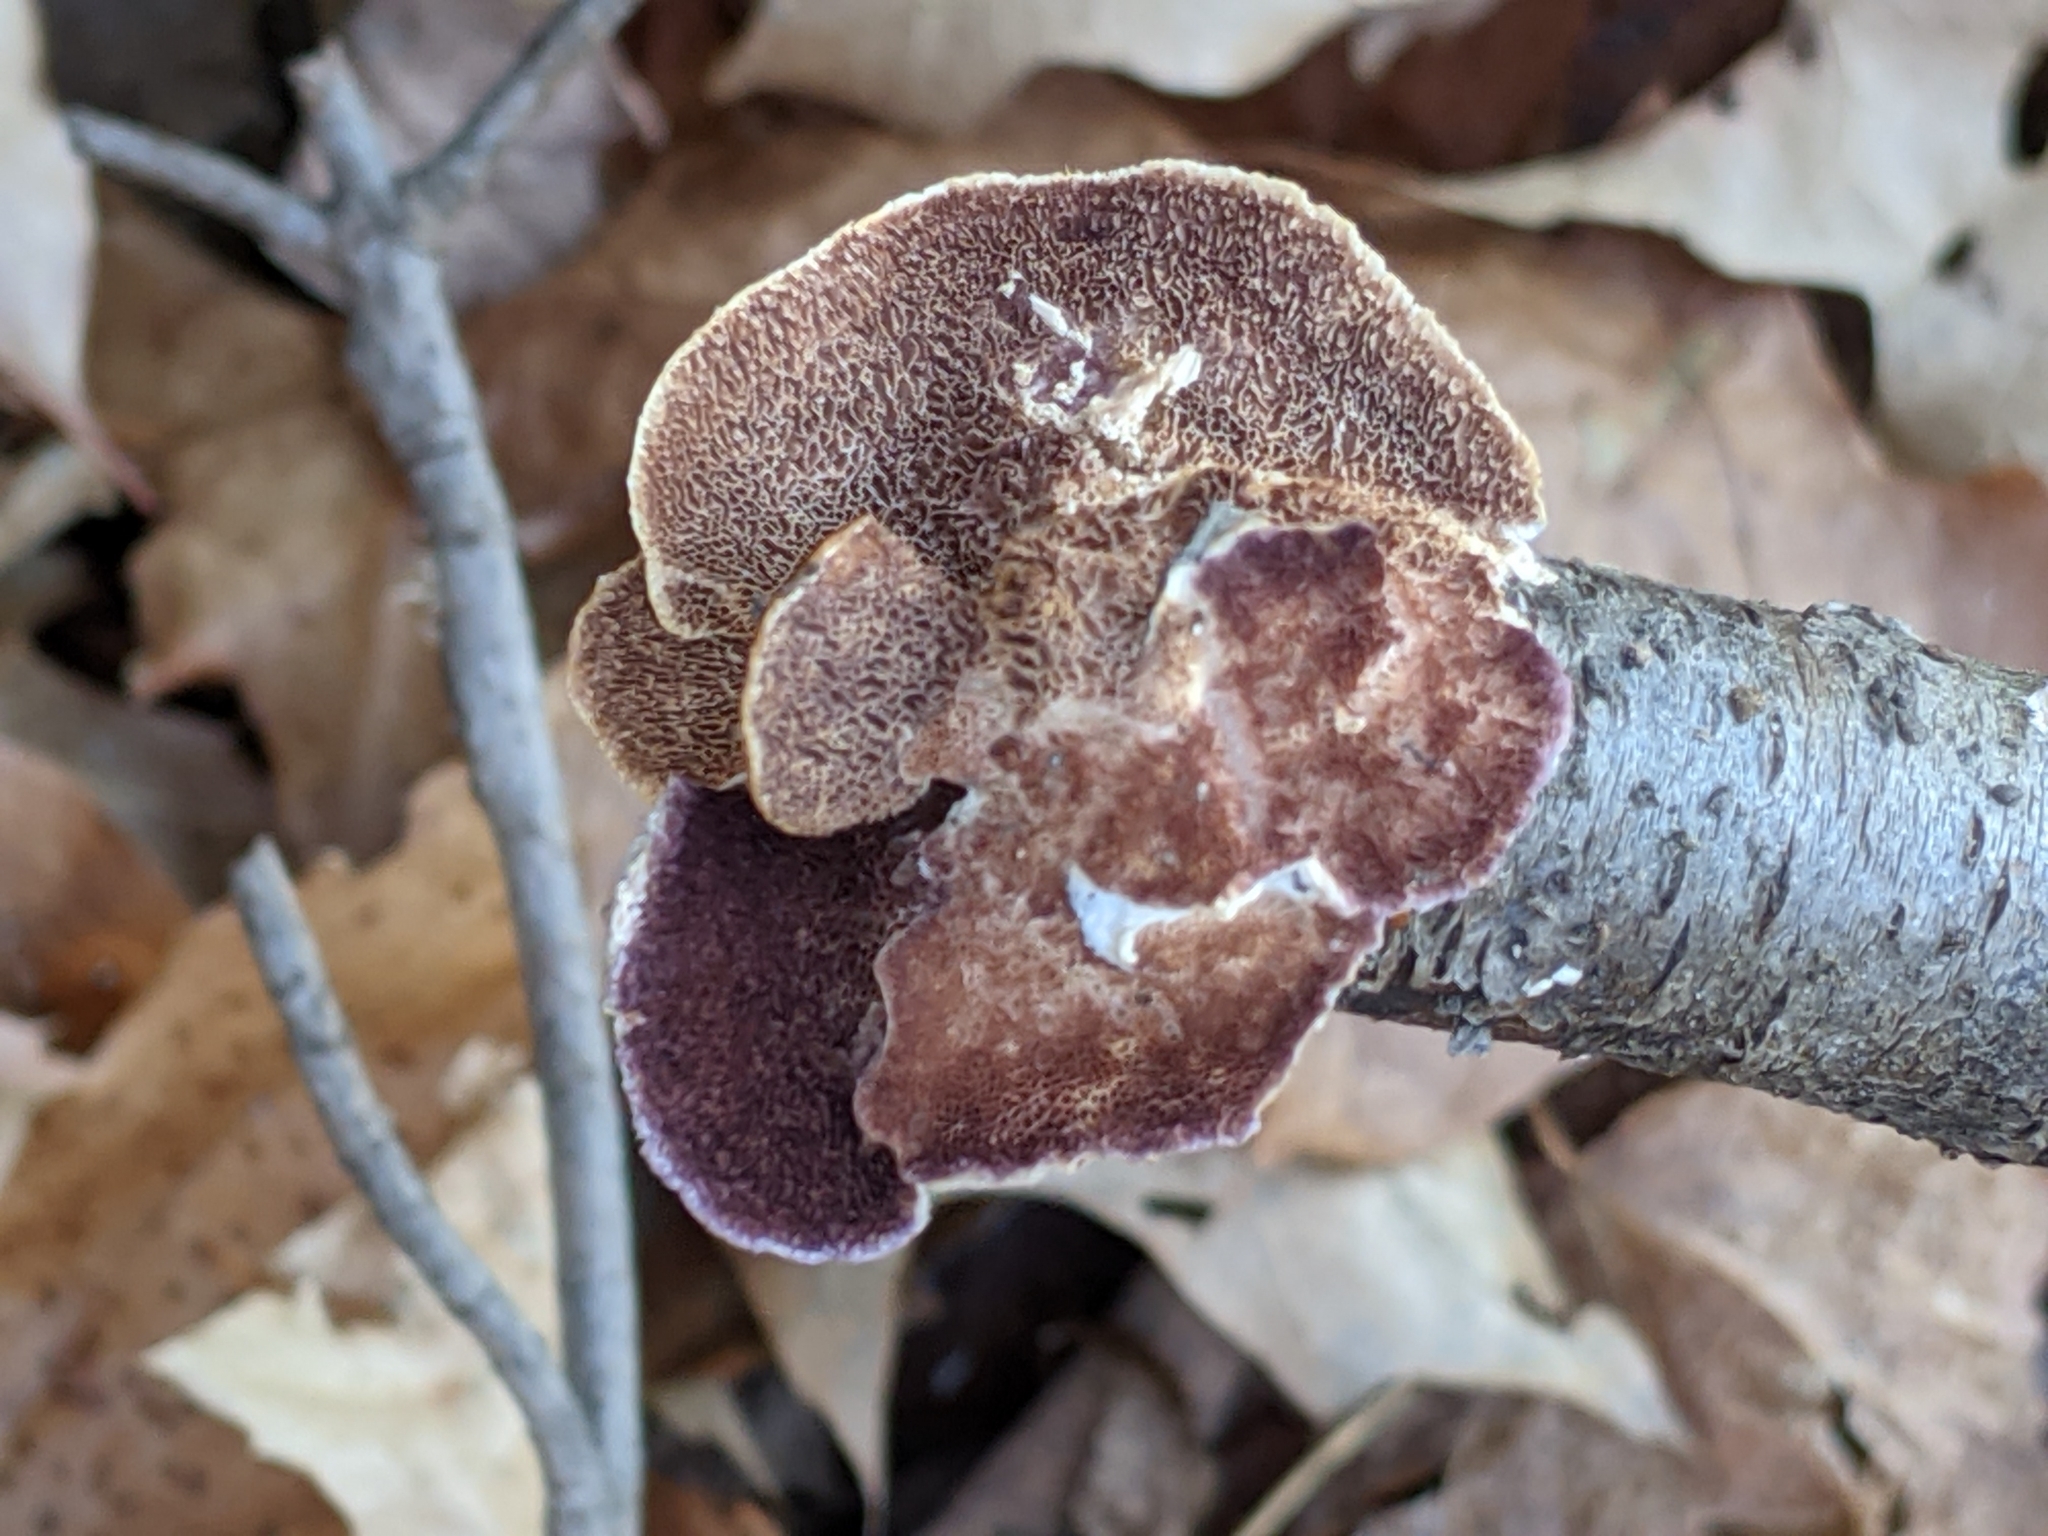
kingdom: Fungi
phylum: Basidiomycota
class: Agaricomycetes
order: Hymenochaetales
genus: Trichaptum
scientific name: Trichaptum biforme
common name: Violet-toothed polypore
